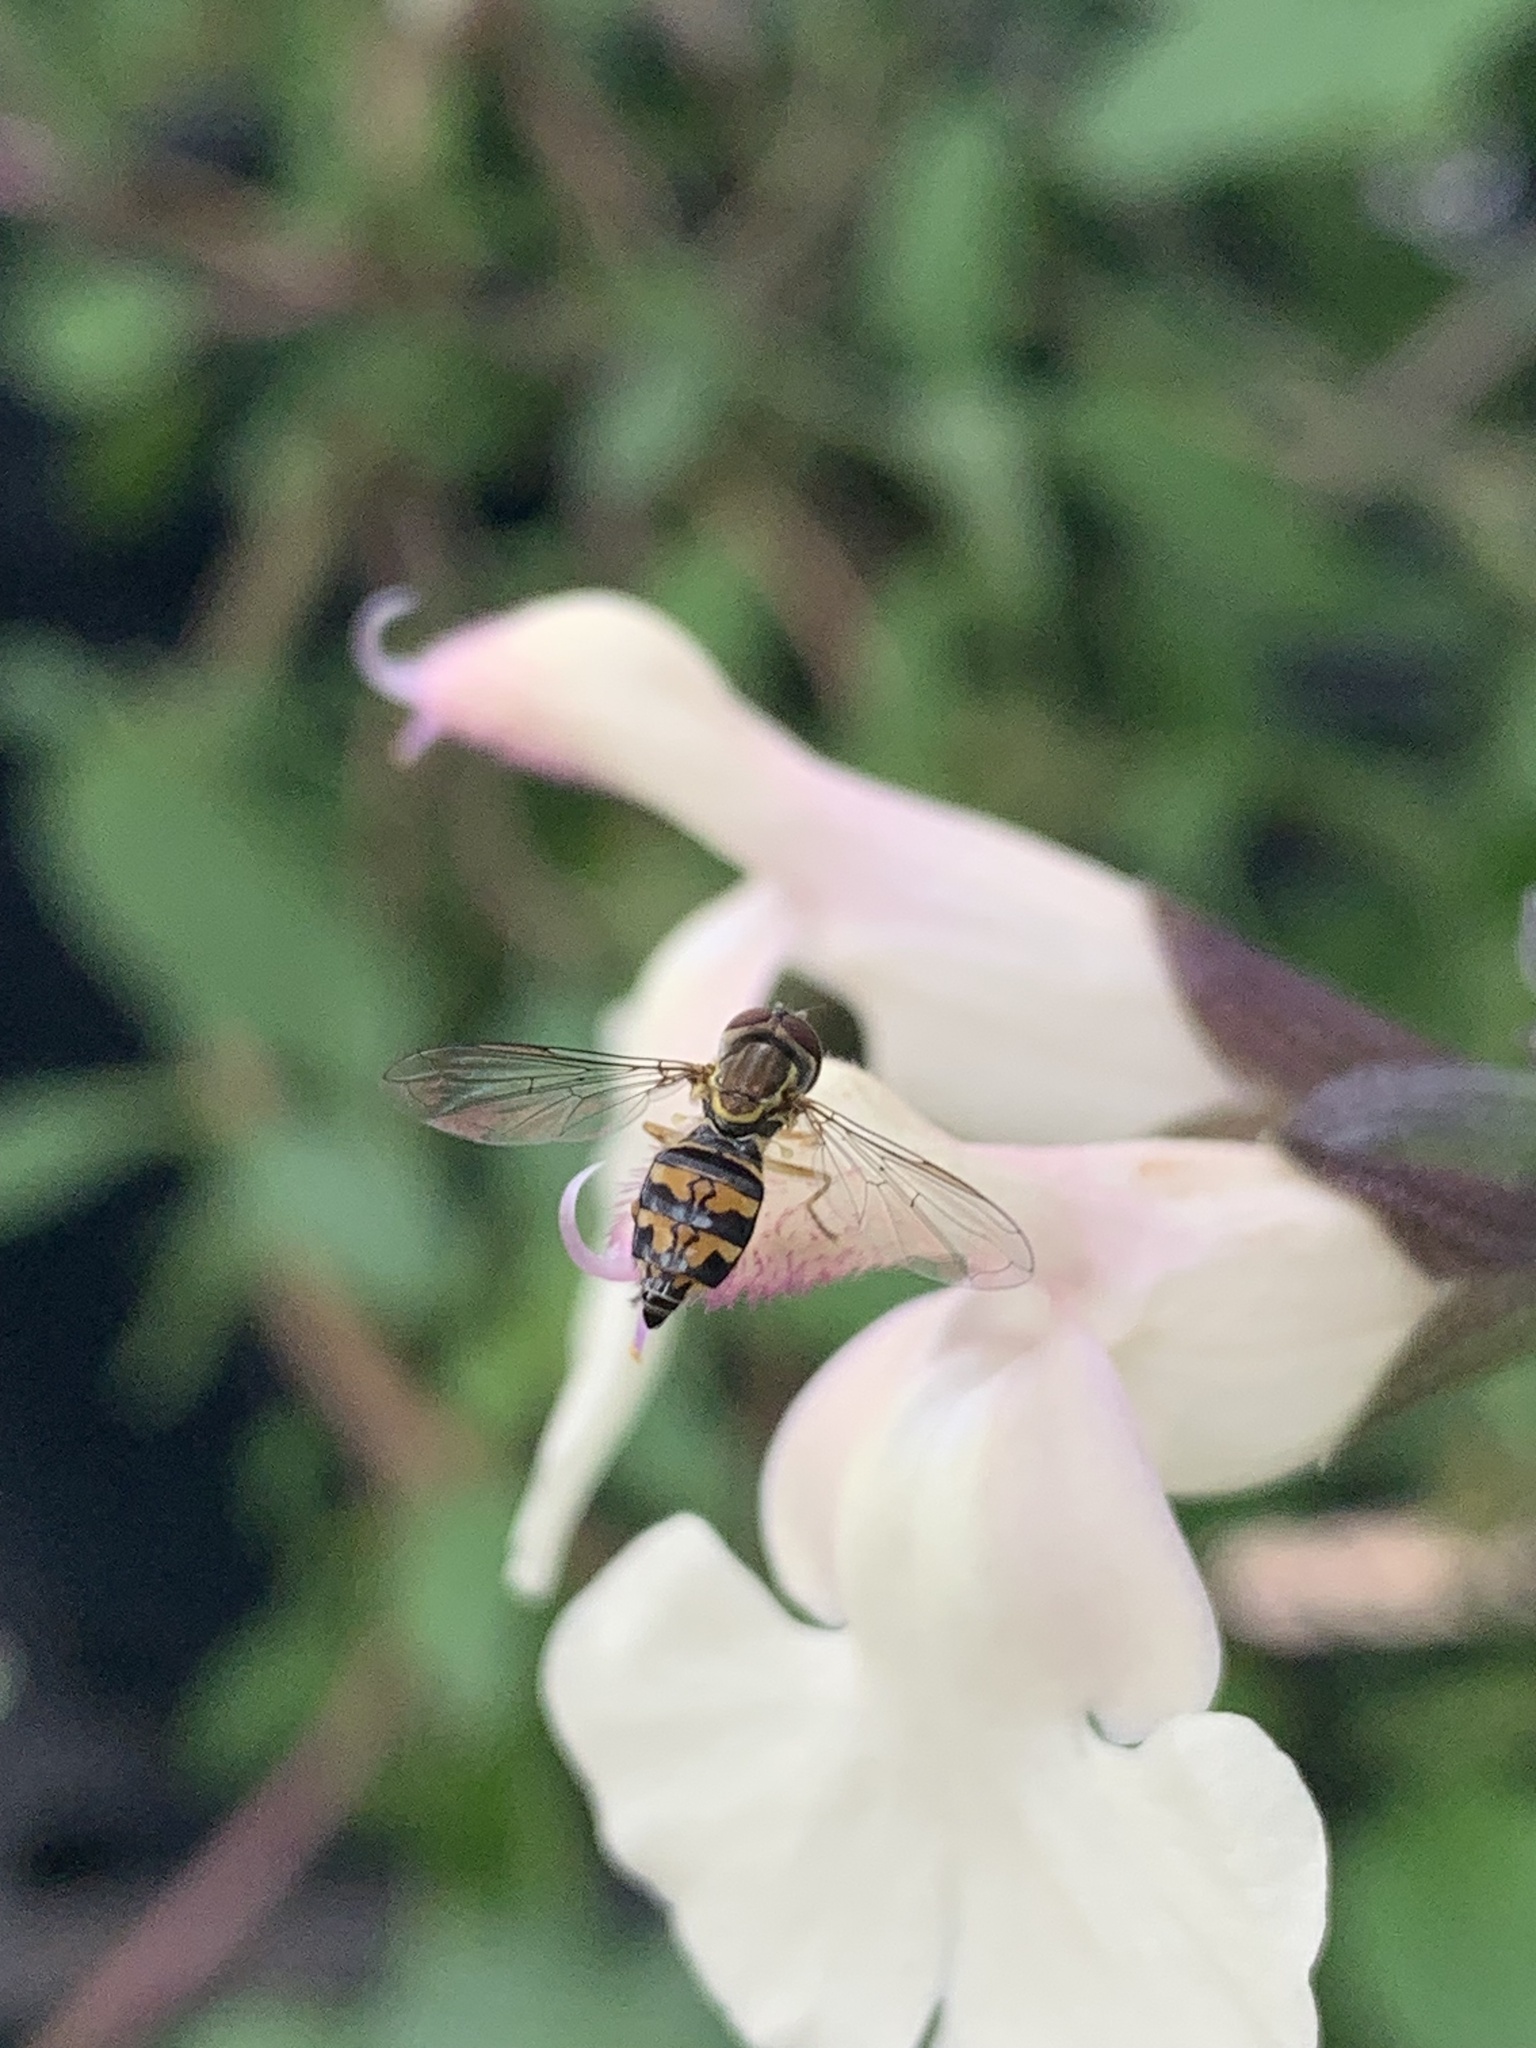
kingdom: Animalia
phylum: Arthropoda
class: Insecta
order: Diptera
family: Syrphidae
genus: Toxomerus
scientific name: Toxomerus occidentalis
